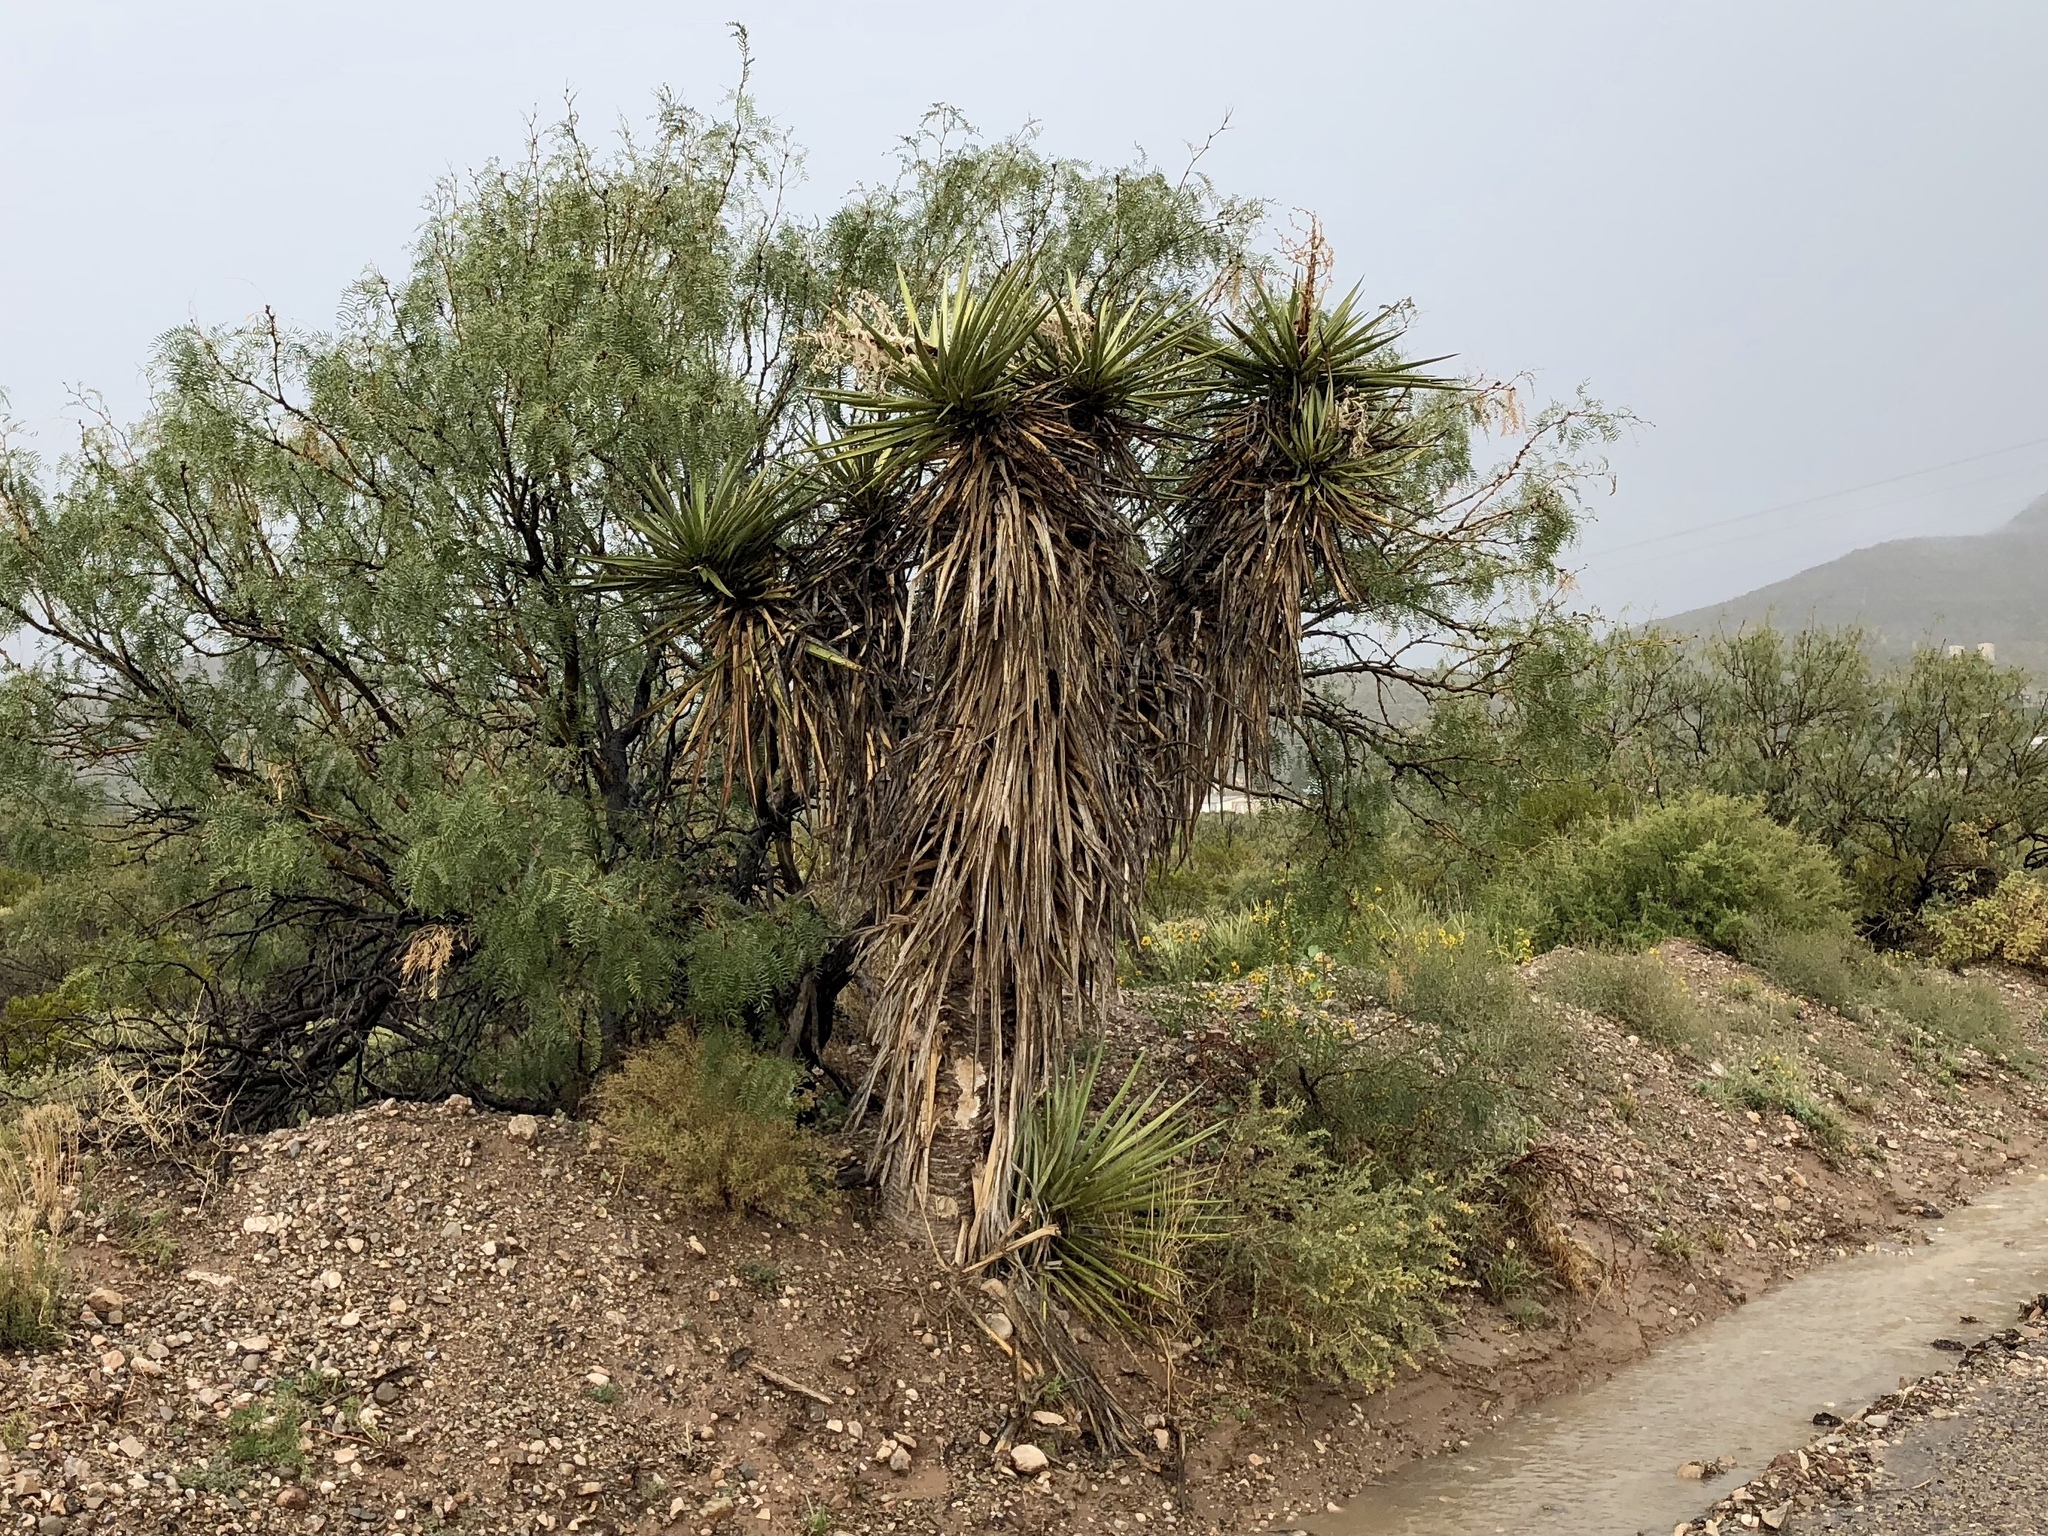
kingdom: Plantae
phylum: Tracheophyta
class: Liliopsida
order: Asparagales
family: Asparagaceae
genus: Yucca
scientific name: Yucca treculiana
